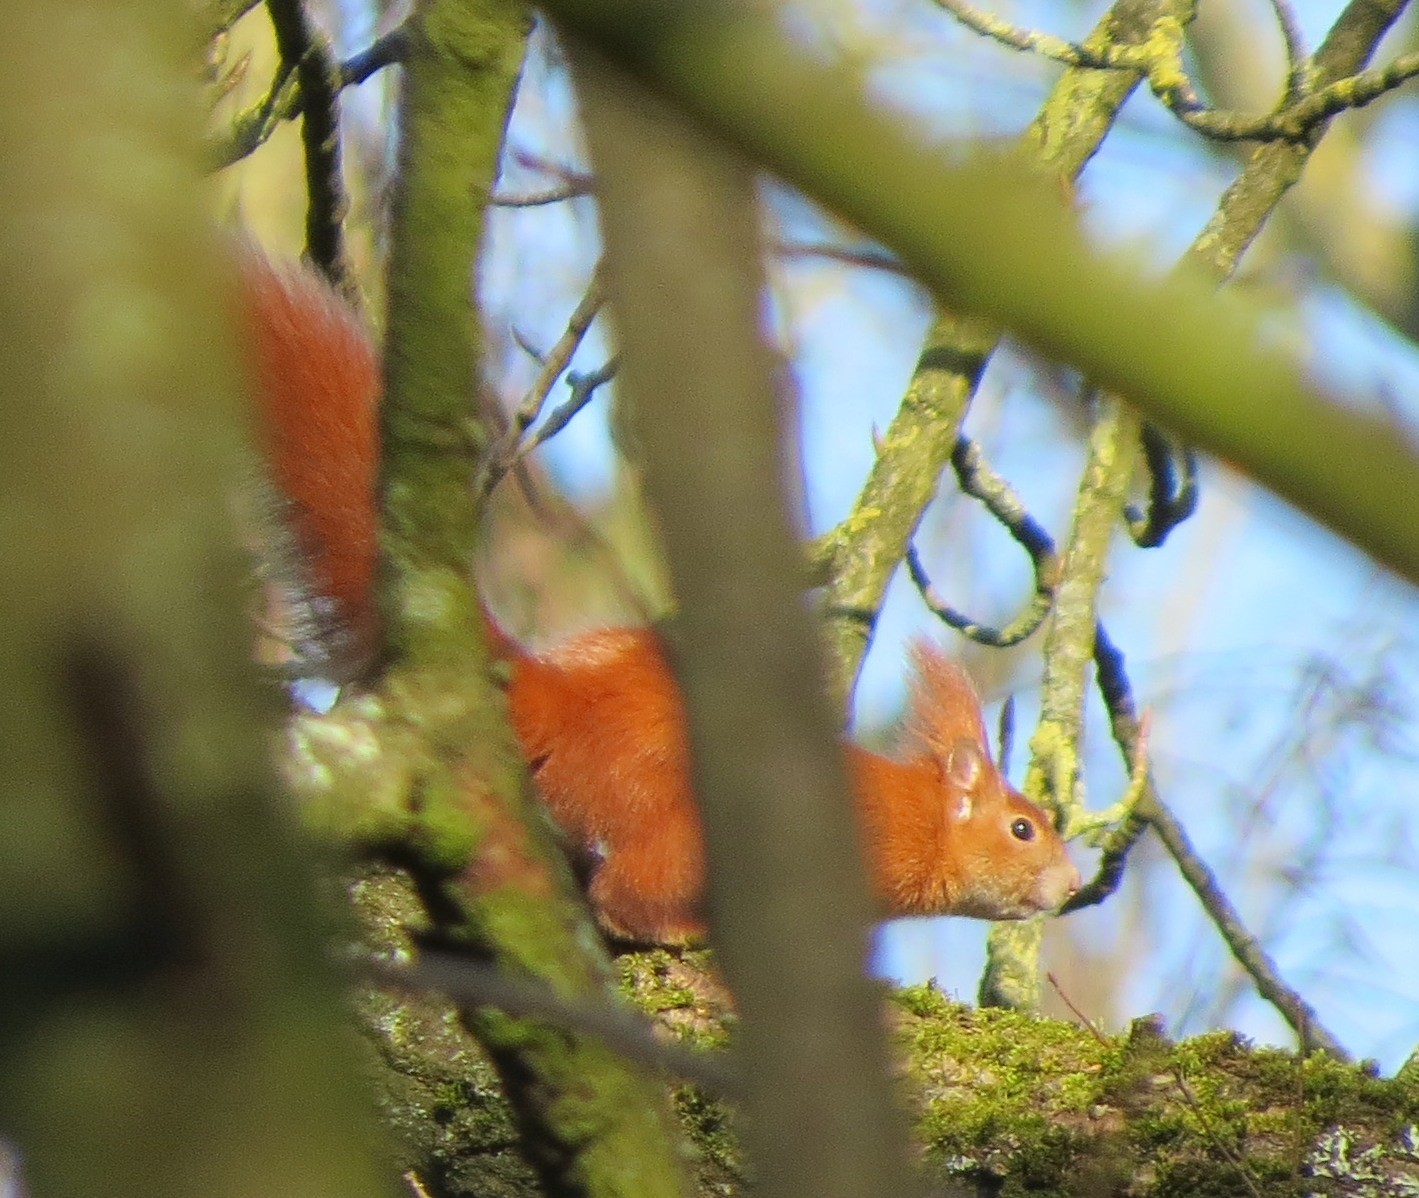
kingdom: Animalia
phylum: Chordata
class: Mammalia
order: Rodentia
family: Sciuridae
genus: Sciurus
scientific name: Sciurus vulgaris
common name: Eurasian red squirrel
